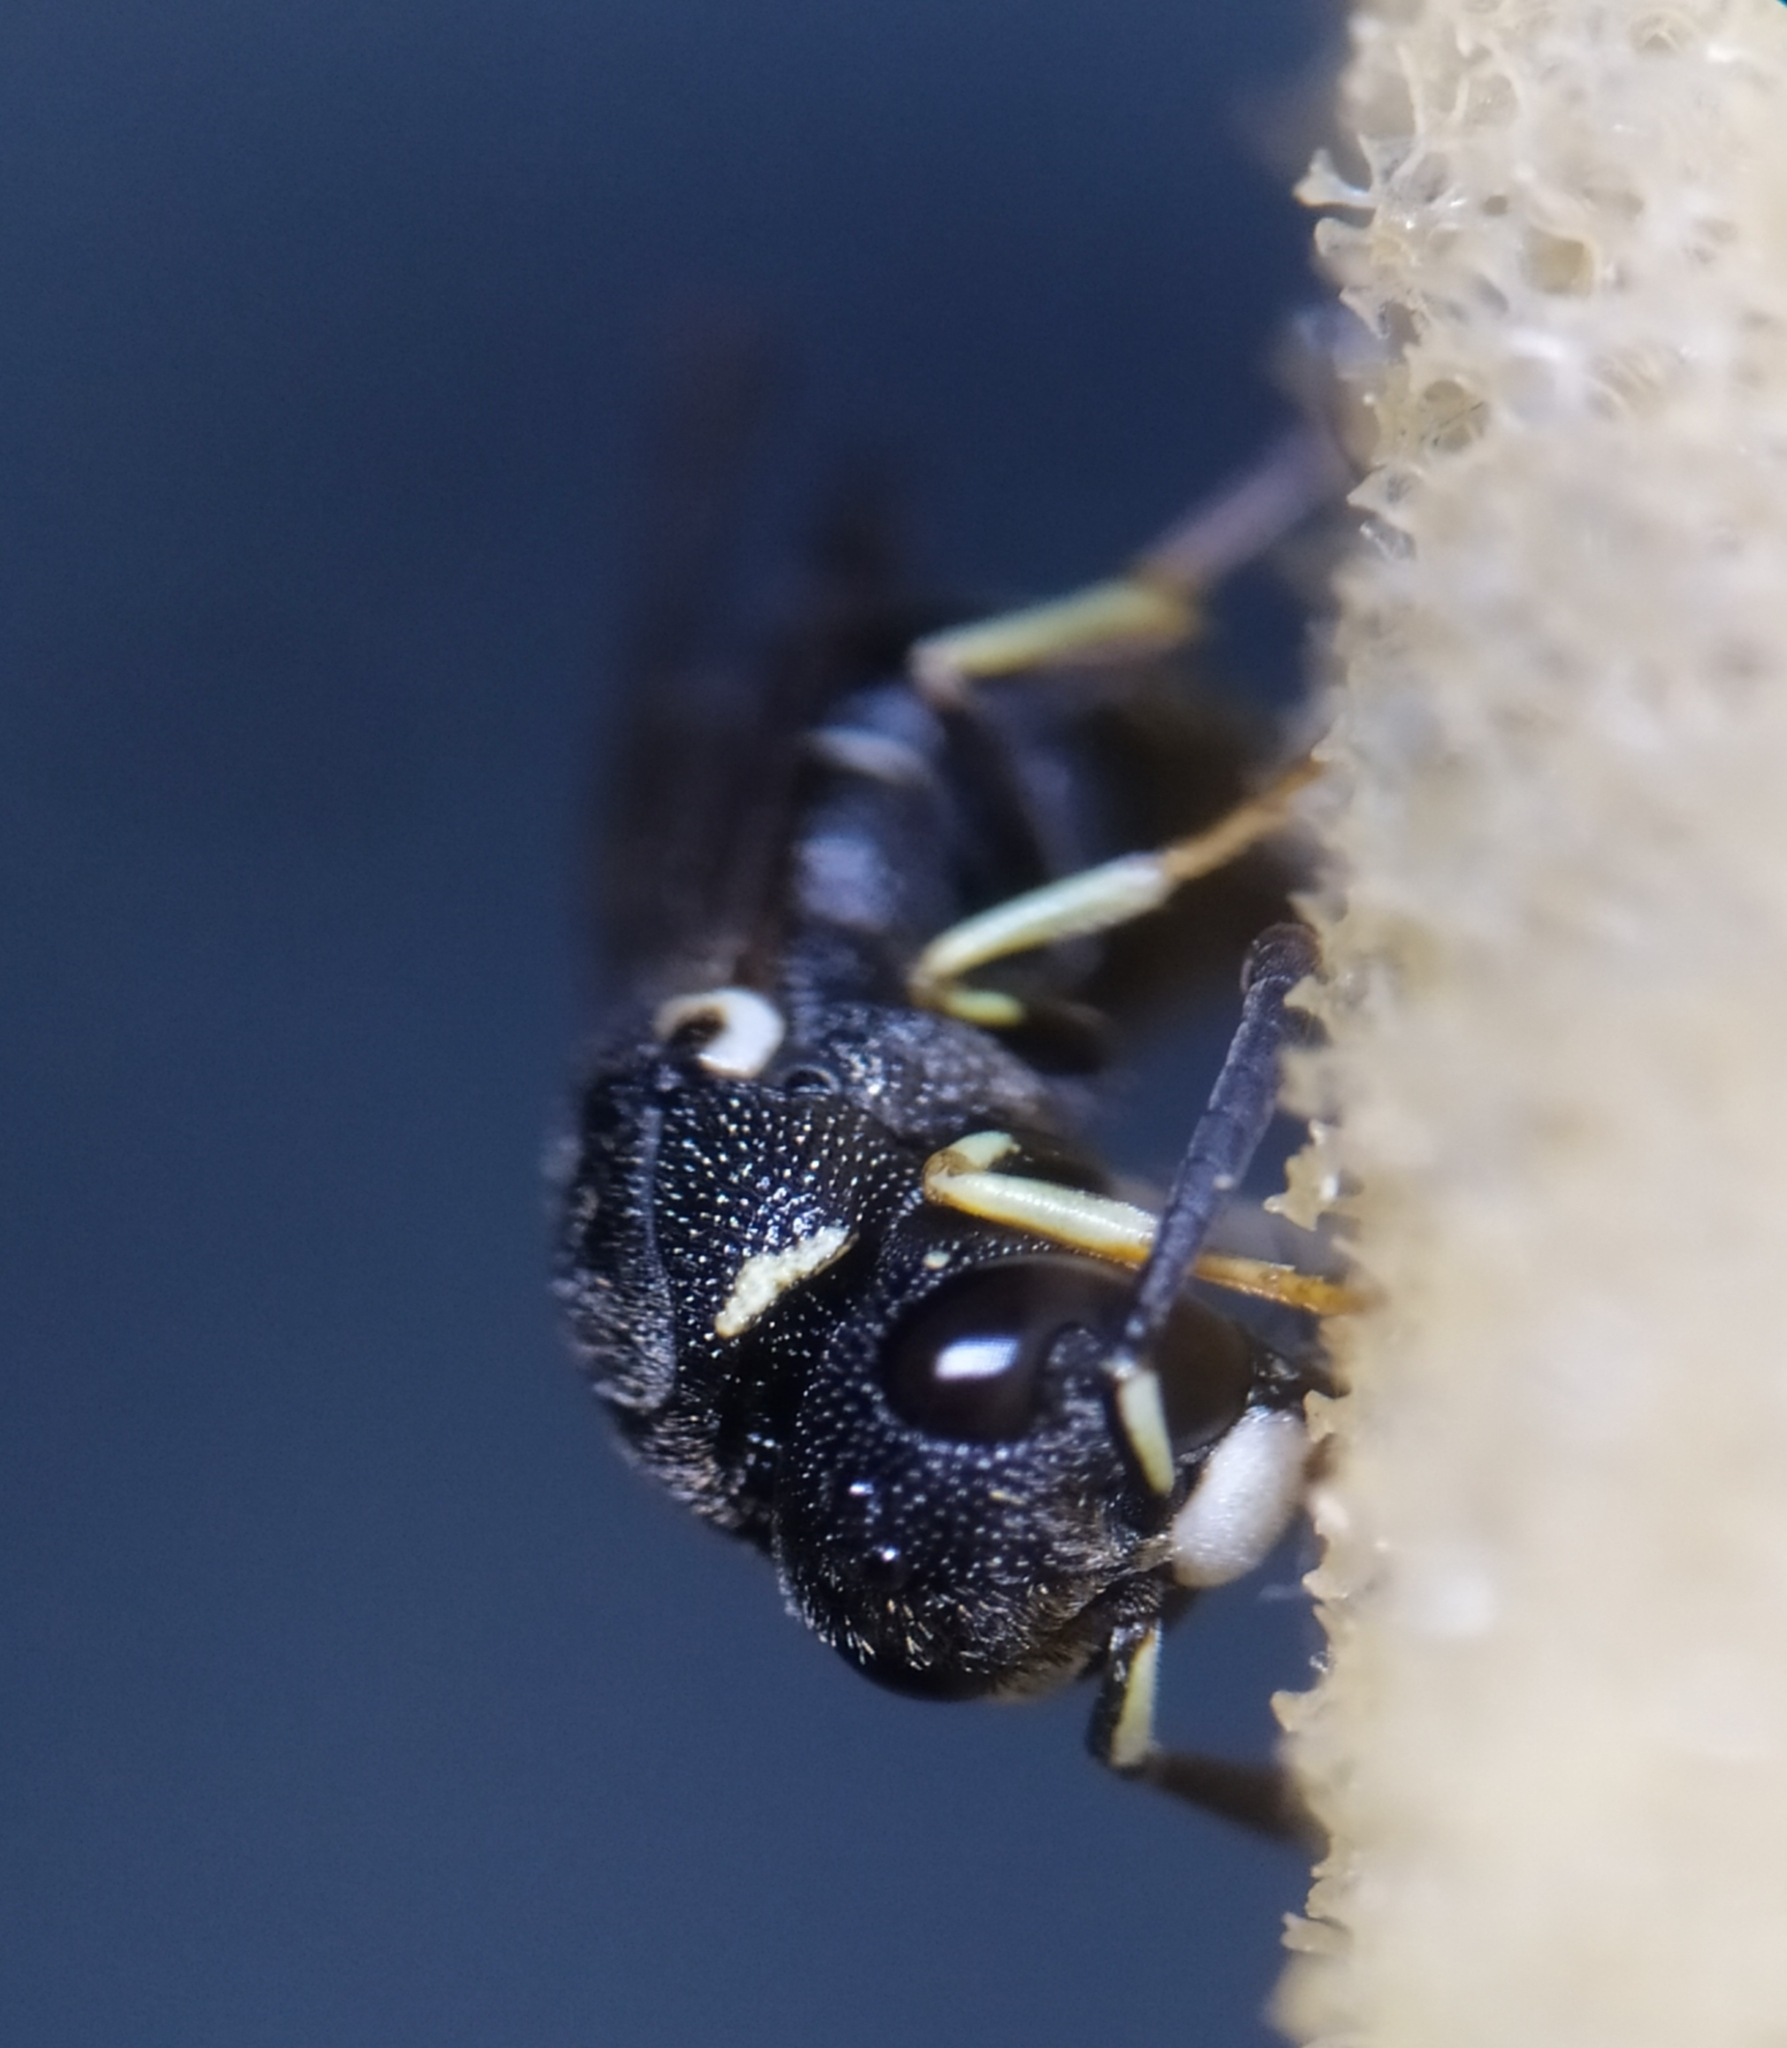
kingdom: Animalia
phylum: Arthropoda
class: Insecta
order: Hymenoptera
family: Eumenidae
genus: Leptochilus
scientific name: Leptochilus regulus
